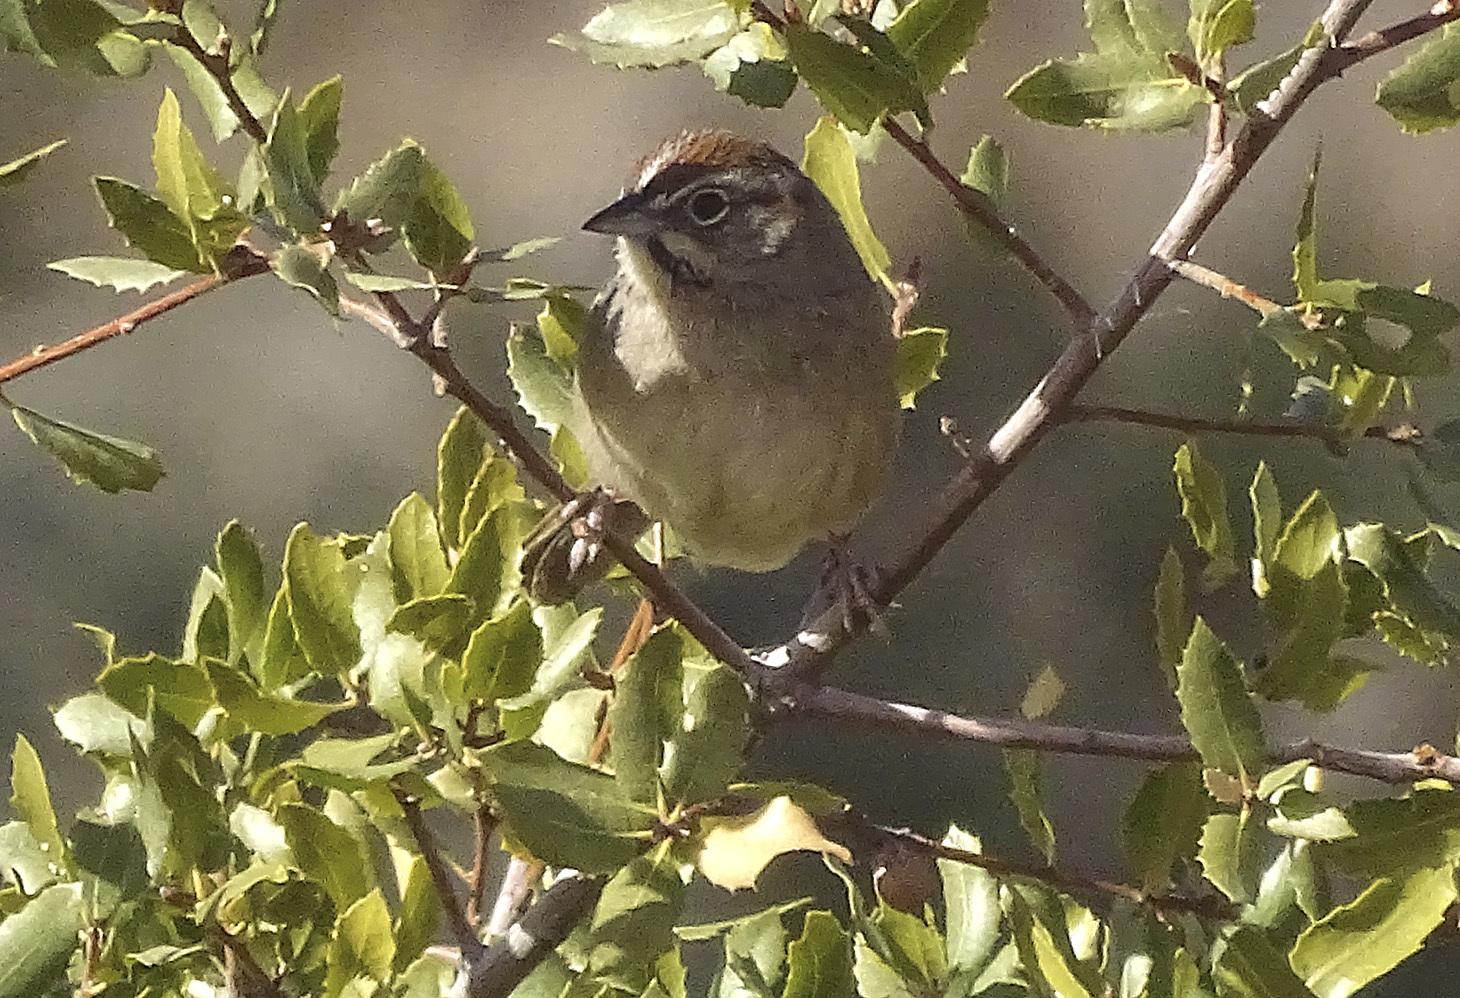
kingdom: Animalia
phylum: Chordata
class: Aves
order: Passeriformes
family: Passerellidae
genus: Aimophila
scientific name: Aimophila ruficeps
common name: Rufous-crowned sparrow
